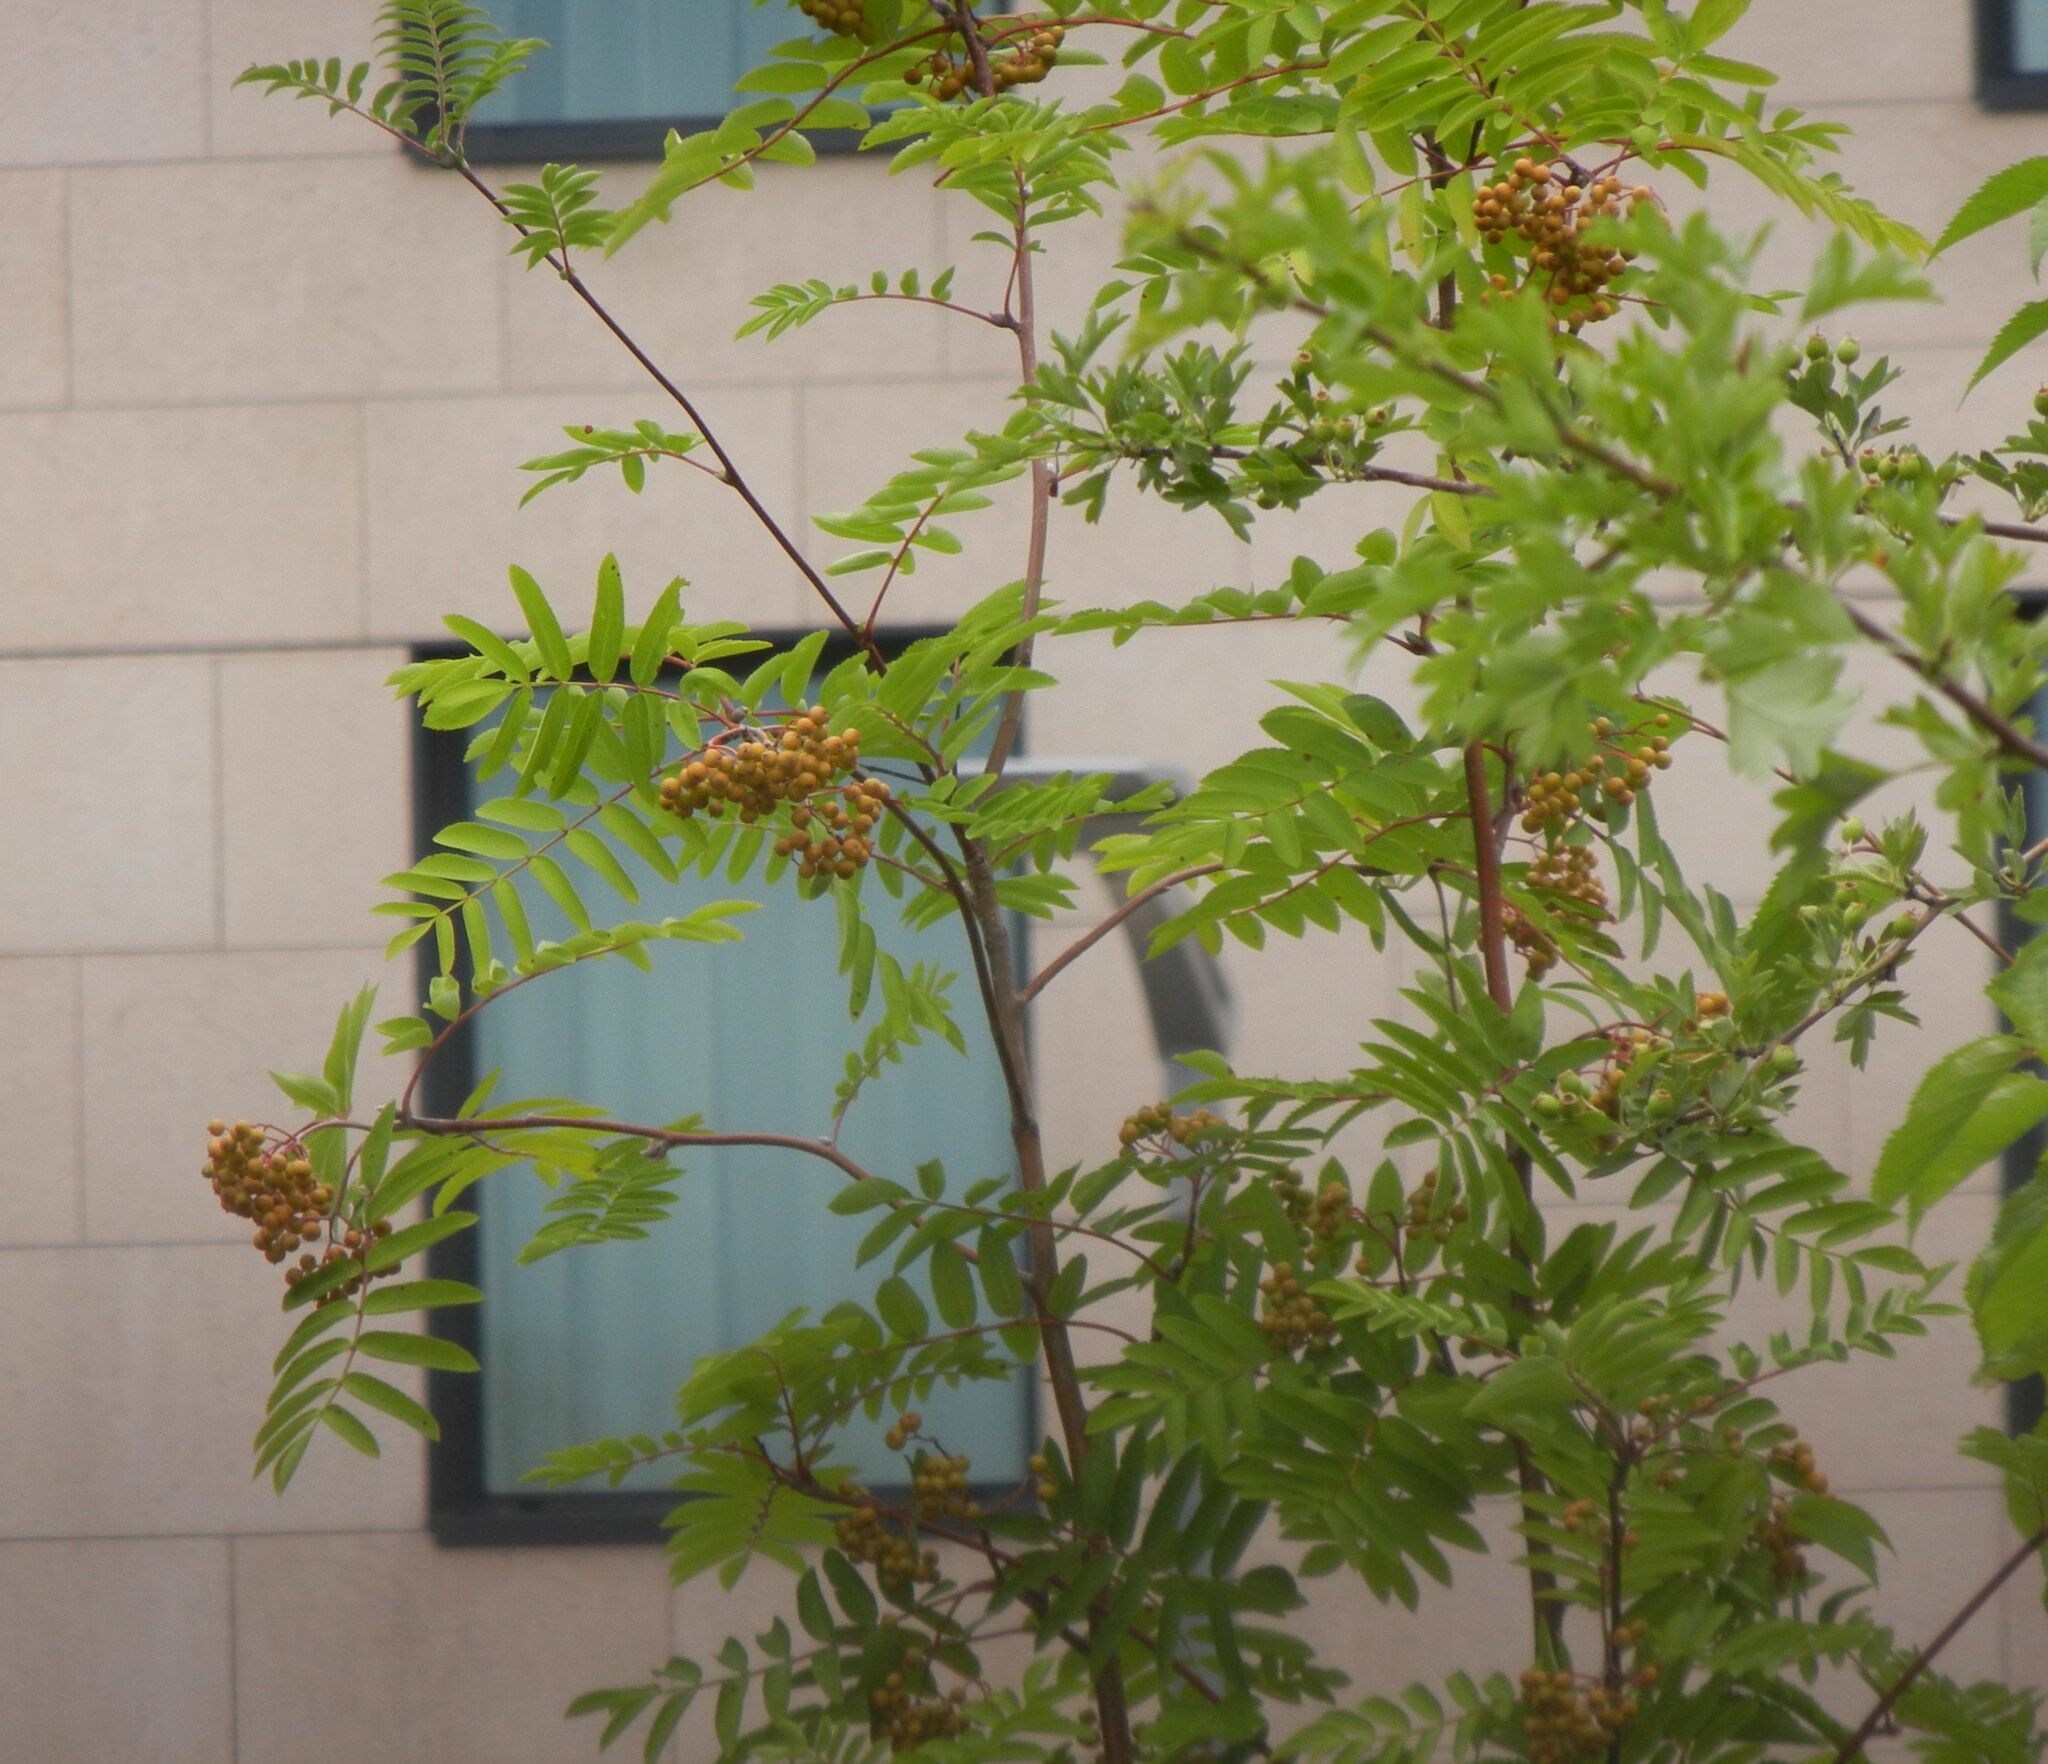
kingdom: Plantae
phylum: Tracheophyta
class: Magnoliopsida
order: Rosales
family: Rosaceae
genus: Sorbus
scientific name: Sorbus aucuparia
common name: Rowan
